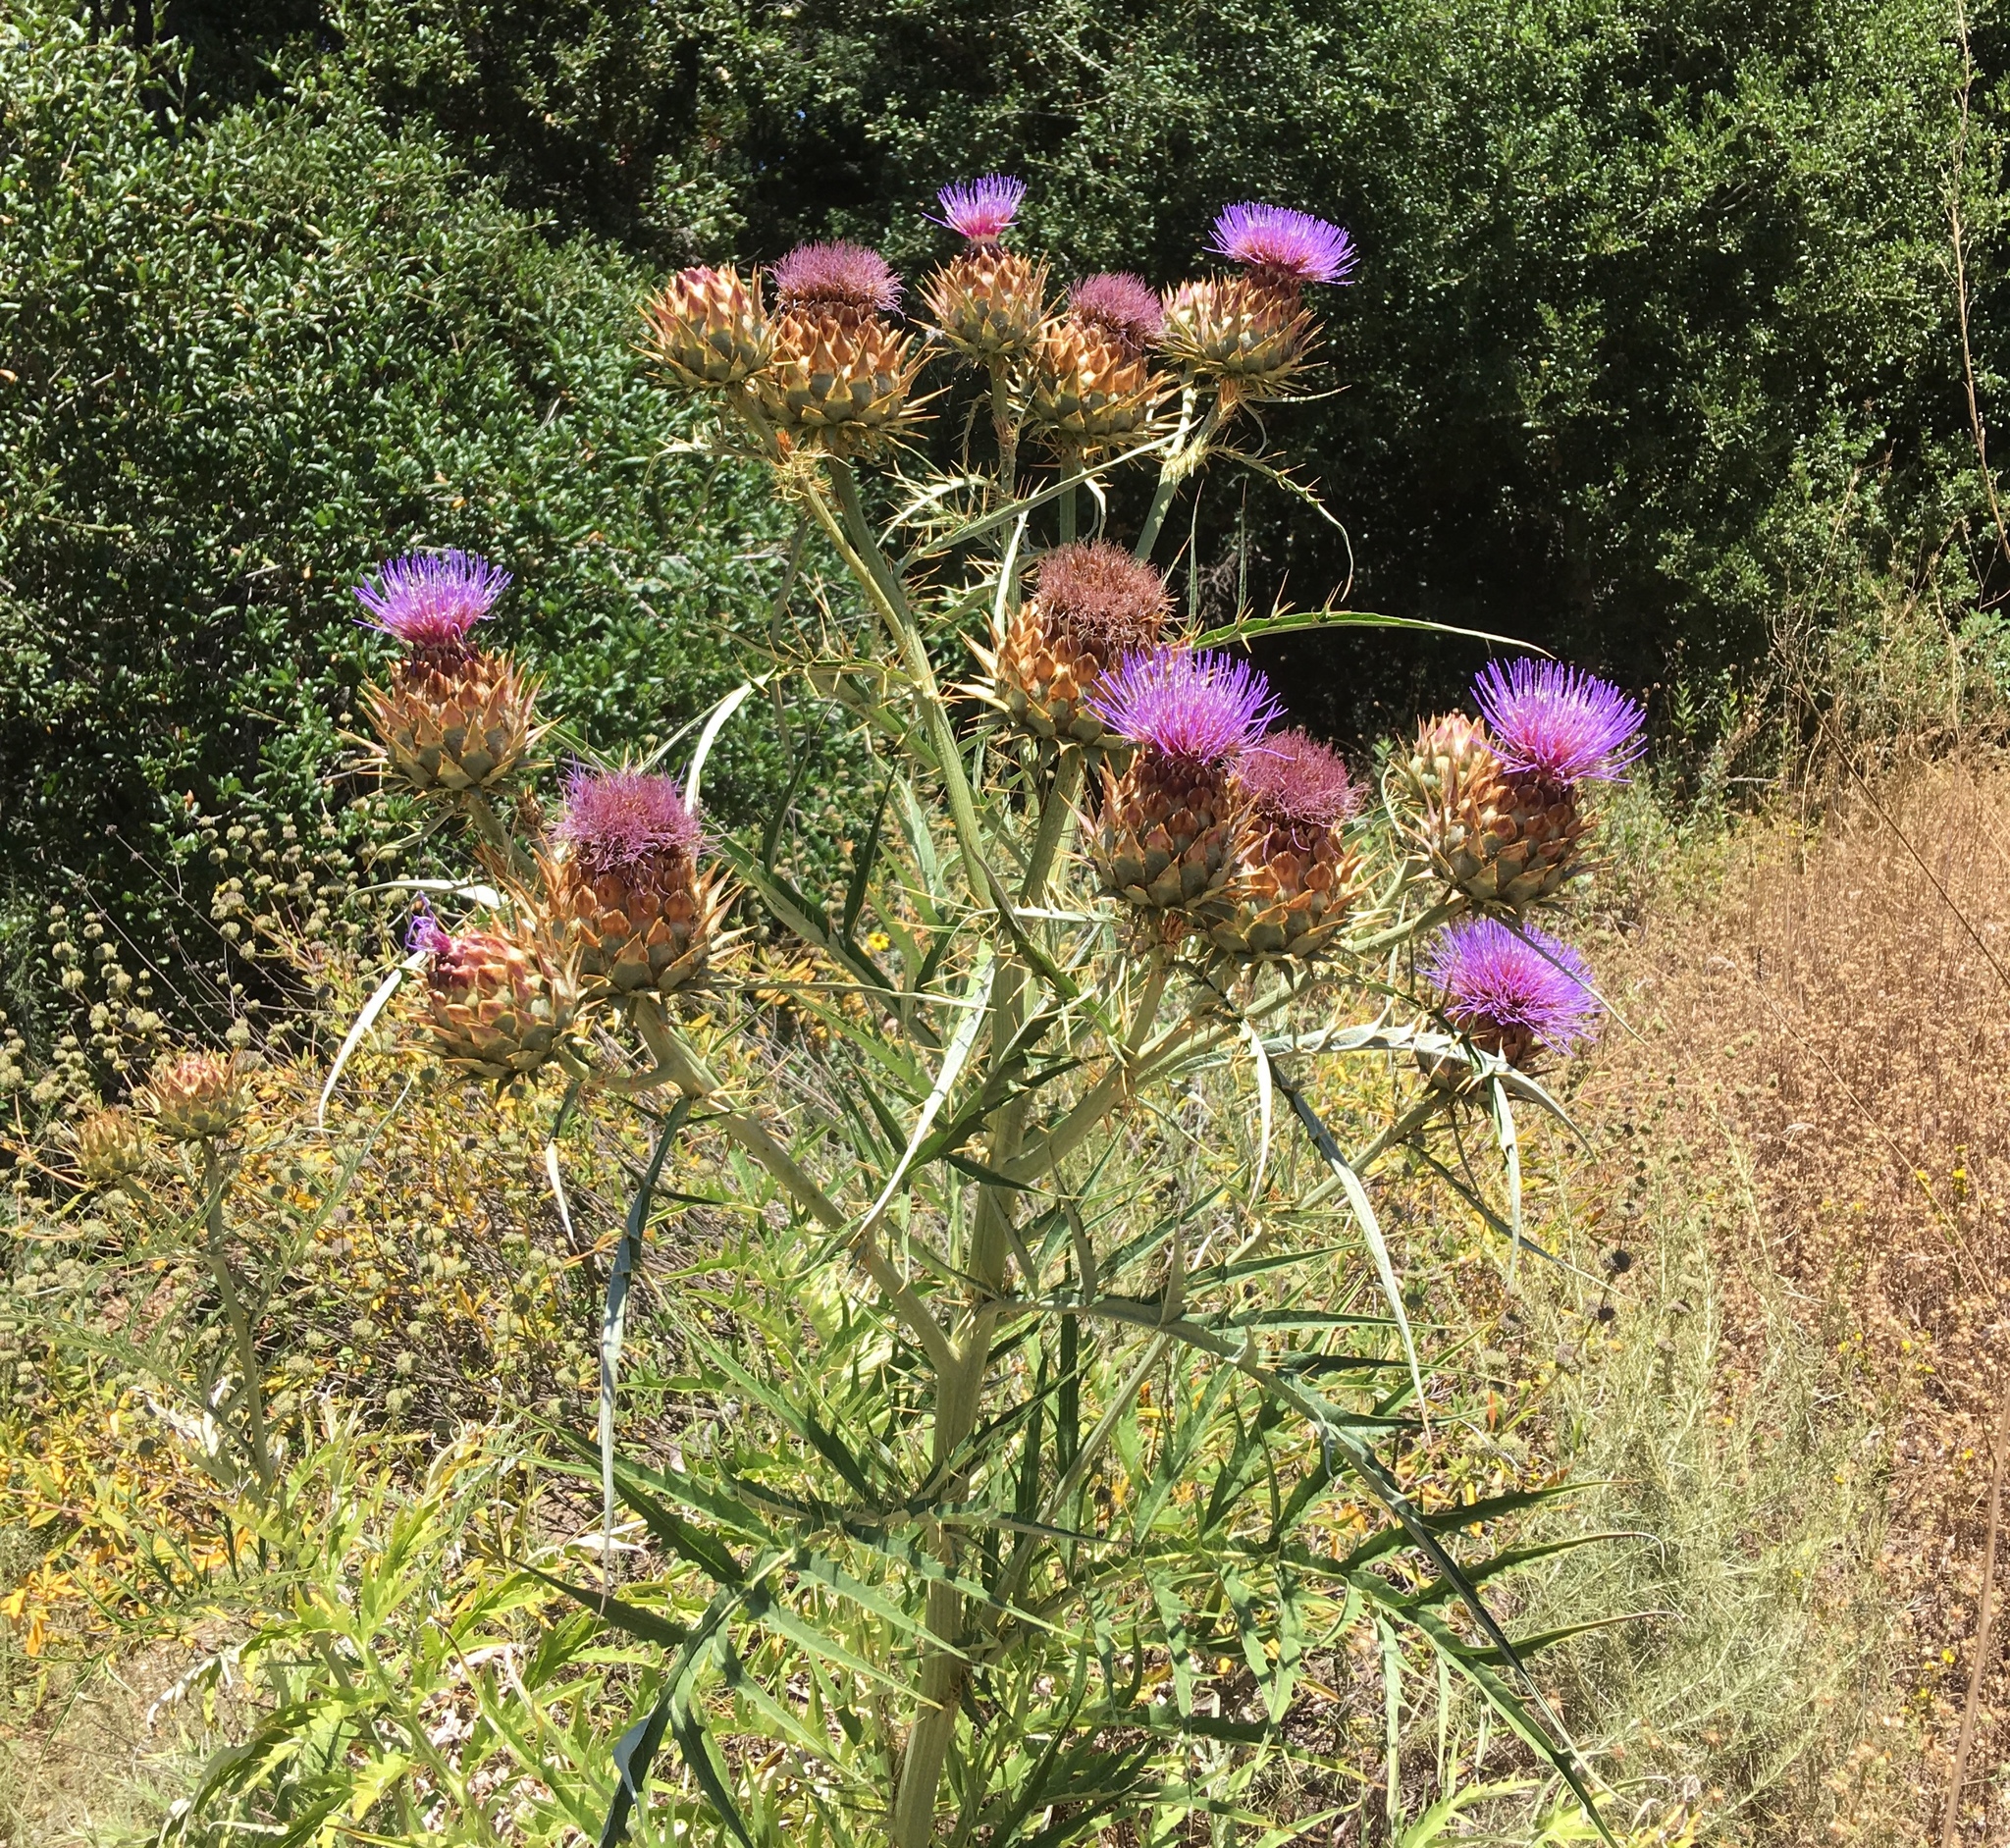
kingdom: Plantae
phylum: Tracheophyta
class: Magnoliopsida
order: Asterales
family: Asteraceae
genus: Cynara
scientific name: Cynara cardunculus
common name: Globe artichoke
